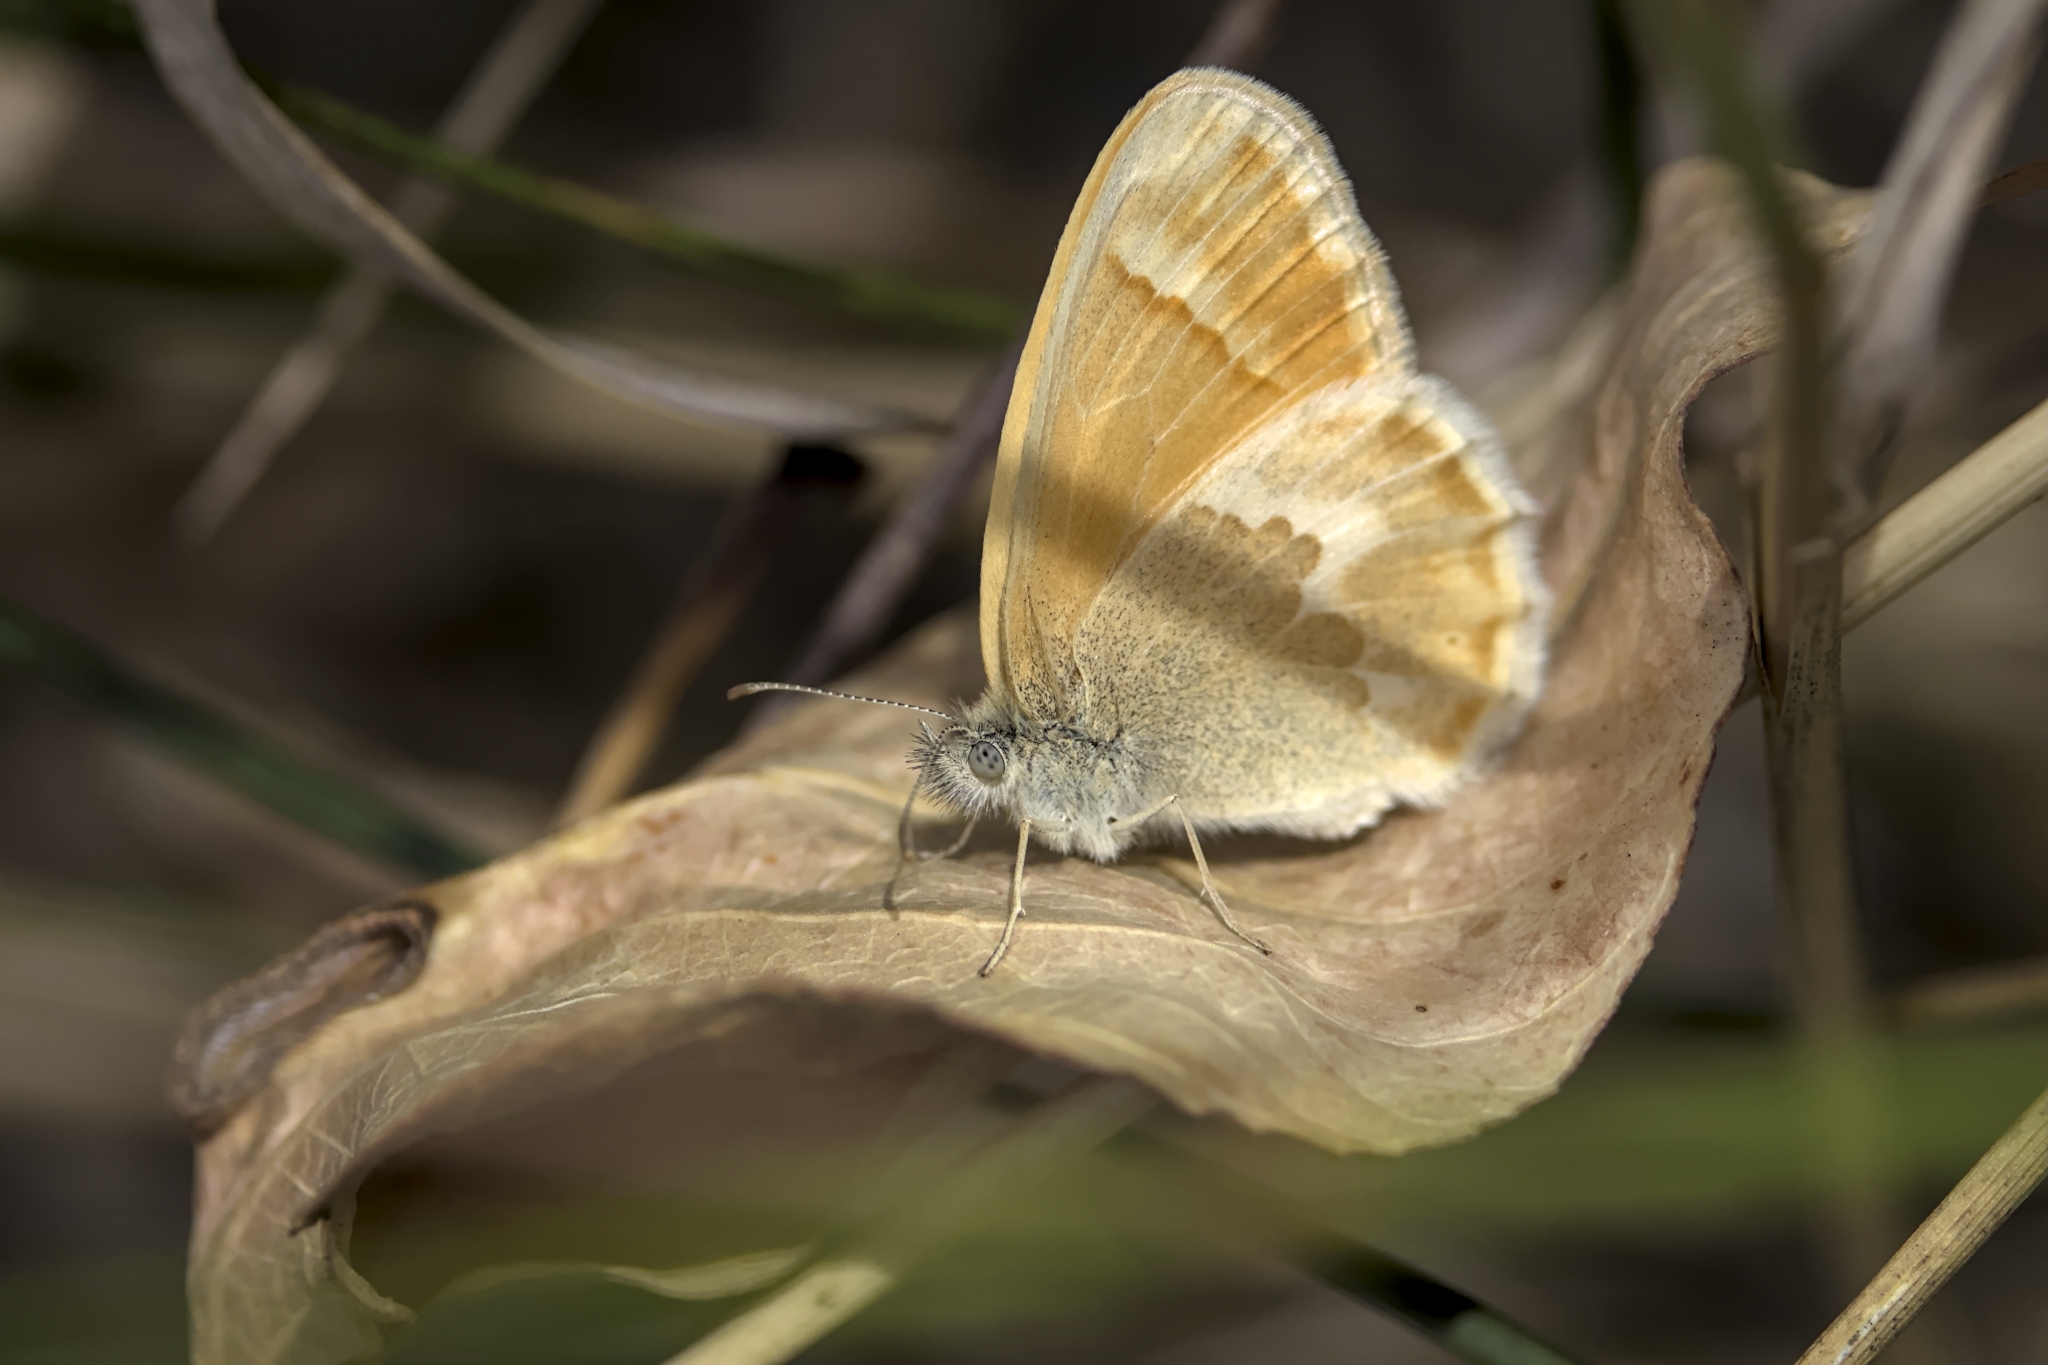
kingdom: Animalia
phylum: Arthropoda
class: Insecta
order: Lepidoptera
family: Nymphalidae
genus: Coenonympha
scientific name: Coenonympha california
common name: Common ringlet
